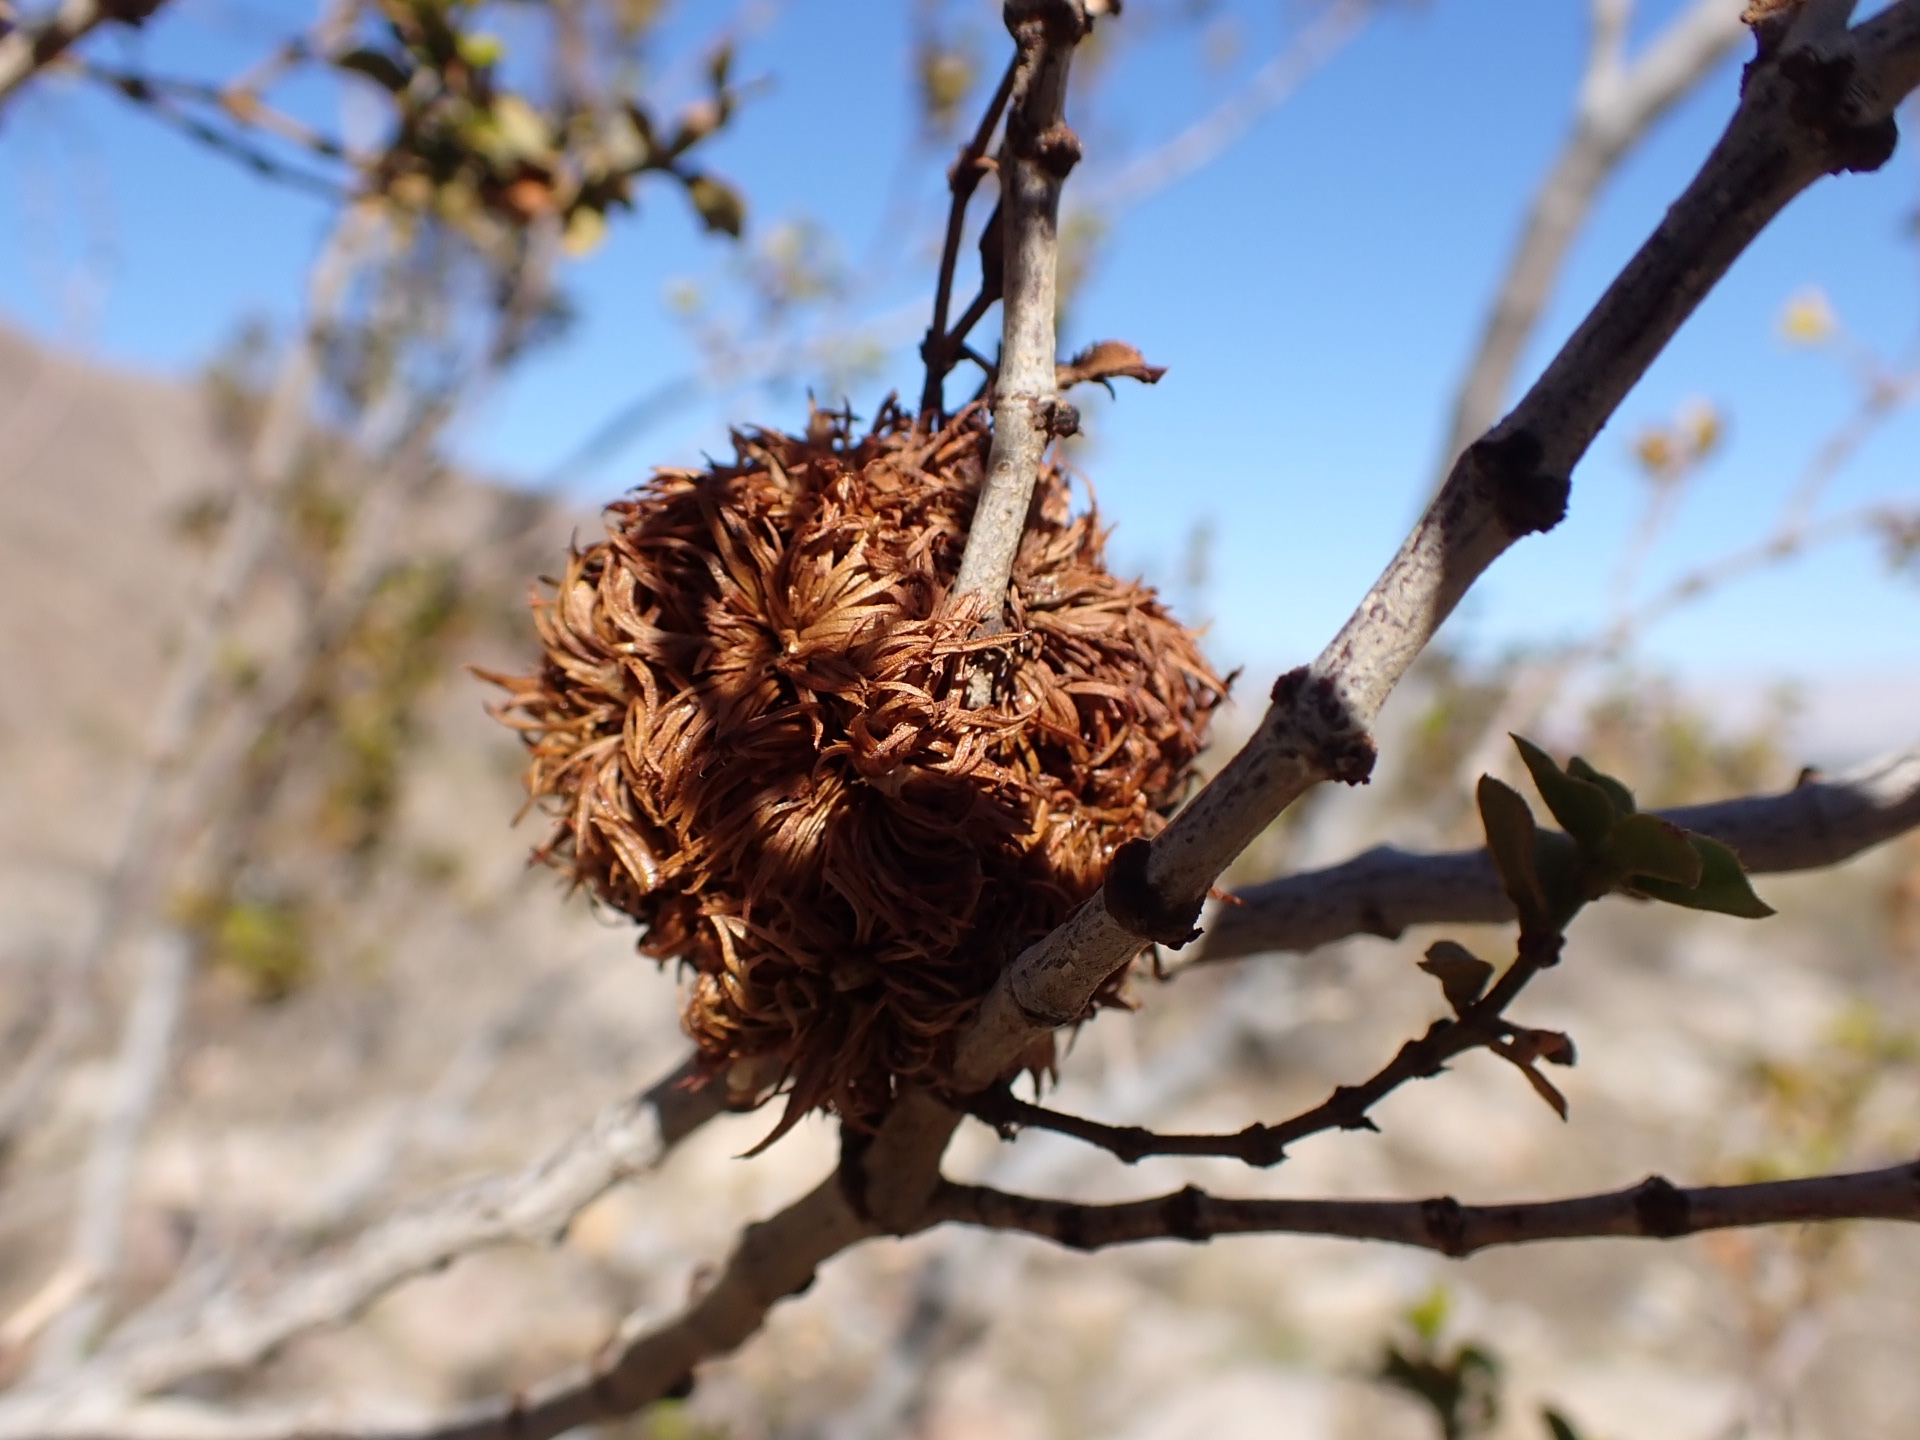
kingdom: Animalia
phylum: Arthropoda
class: Insecta
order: Diptera
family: Cecidomyiidae
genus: Asphondylia
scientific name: Asphondylia auripila
